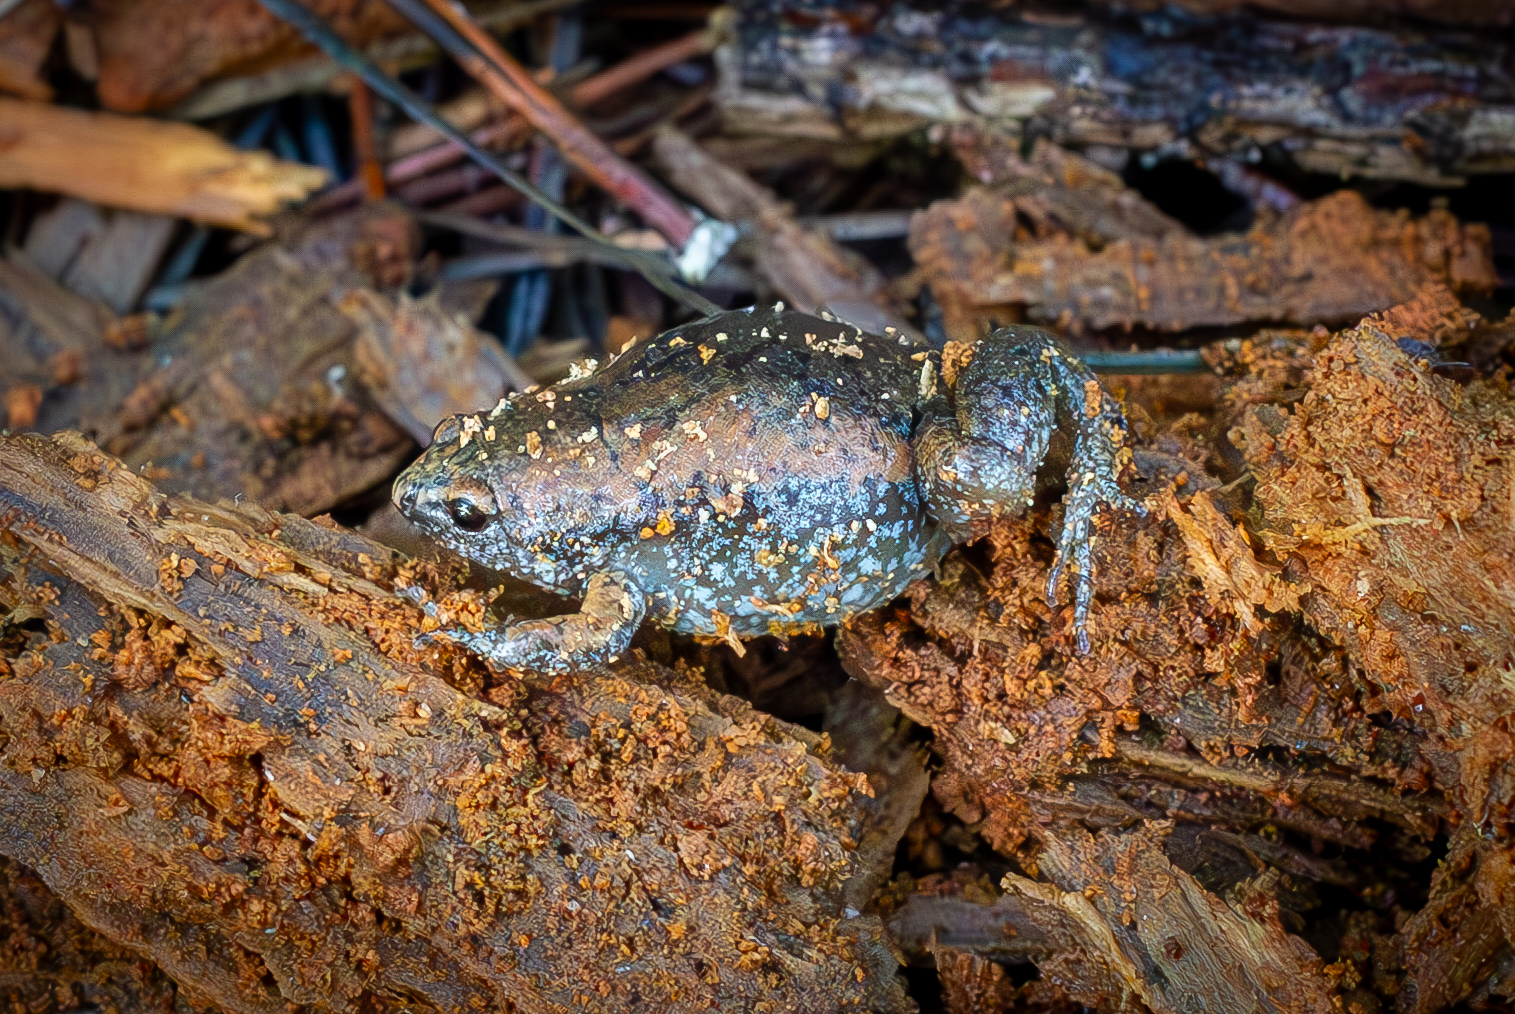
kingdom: Animalia
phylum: Chordata
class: Amphibia
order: Anura
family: Microhylidae
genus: Gastrophryne
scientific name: Gastrophryne carolinensis
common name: Eastern narrowmouth toad
